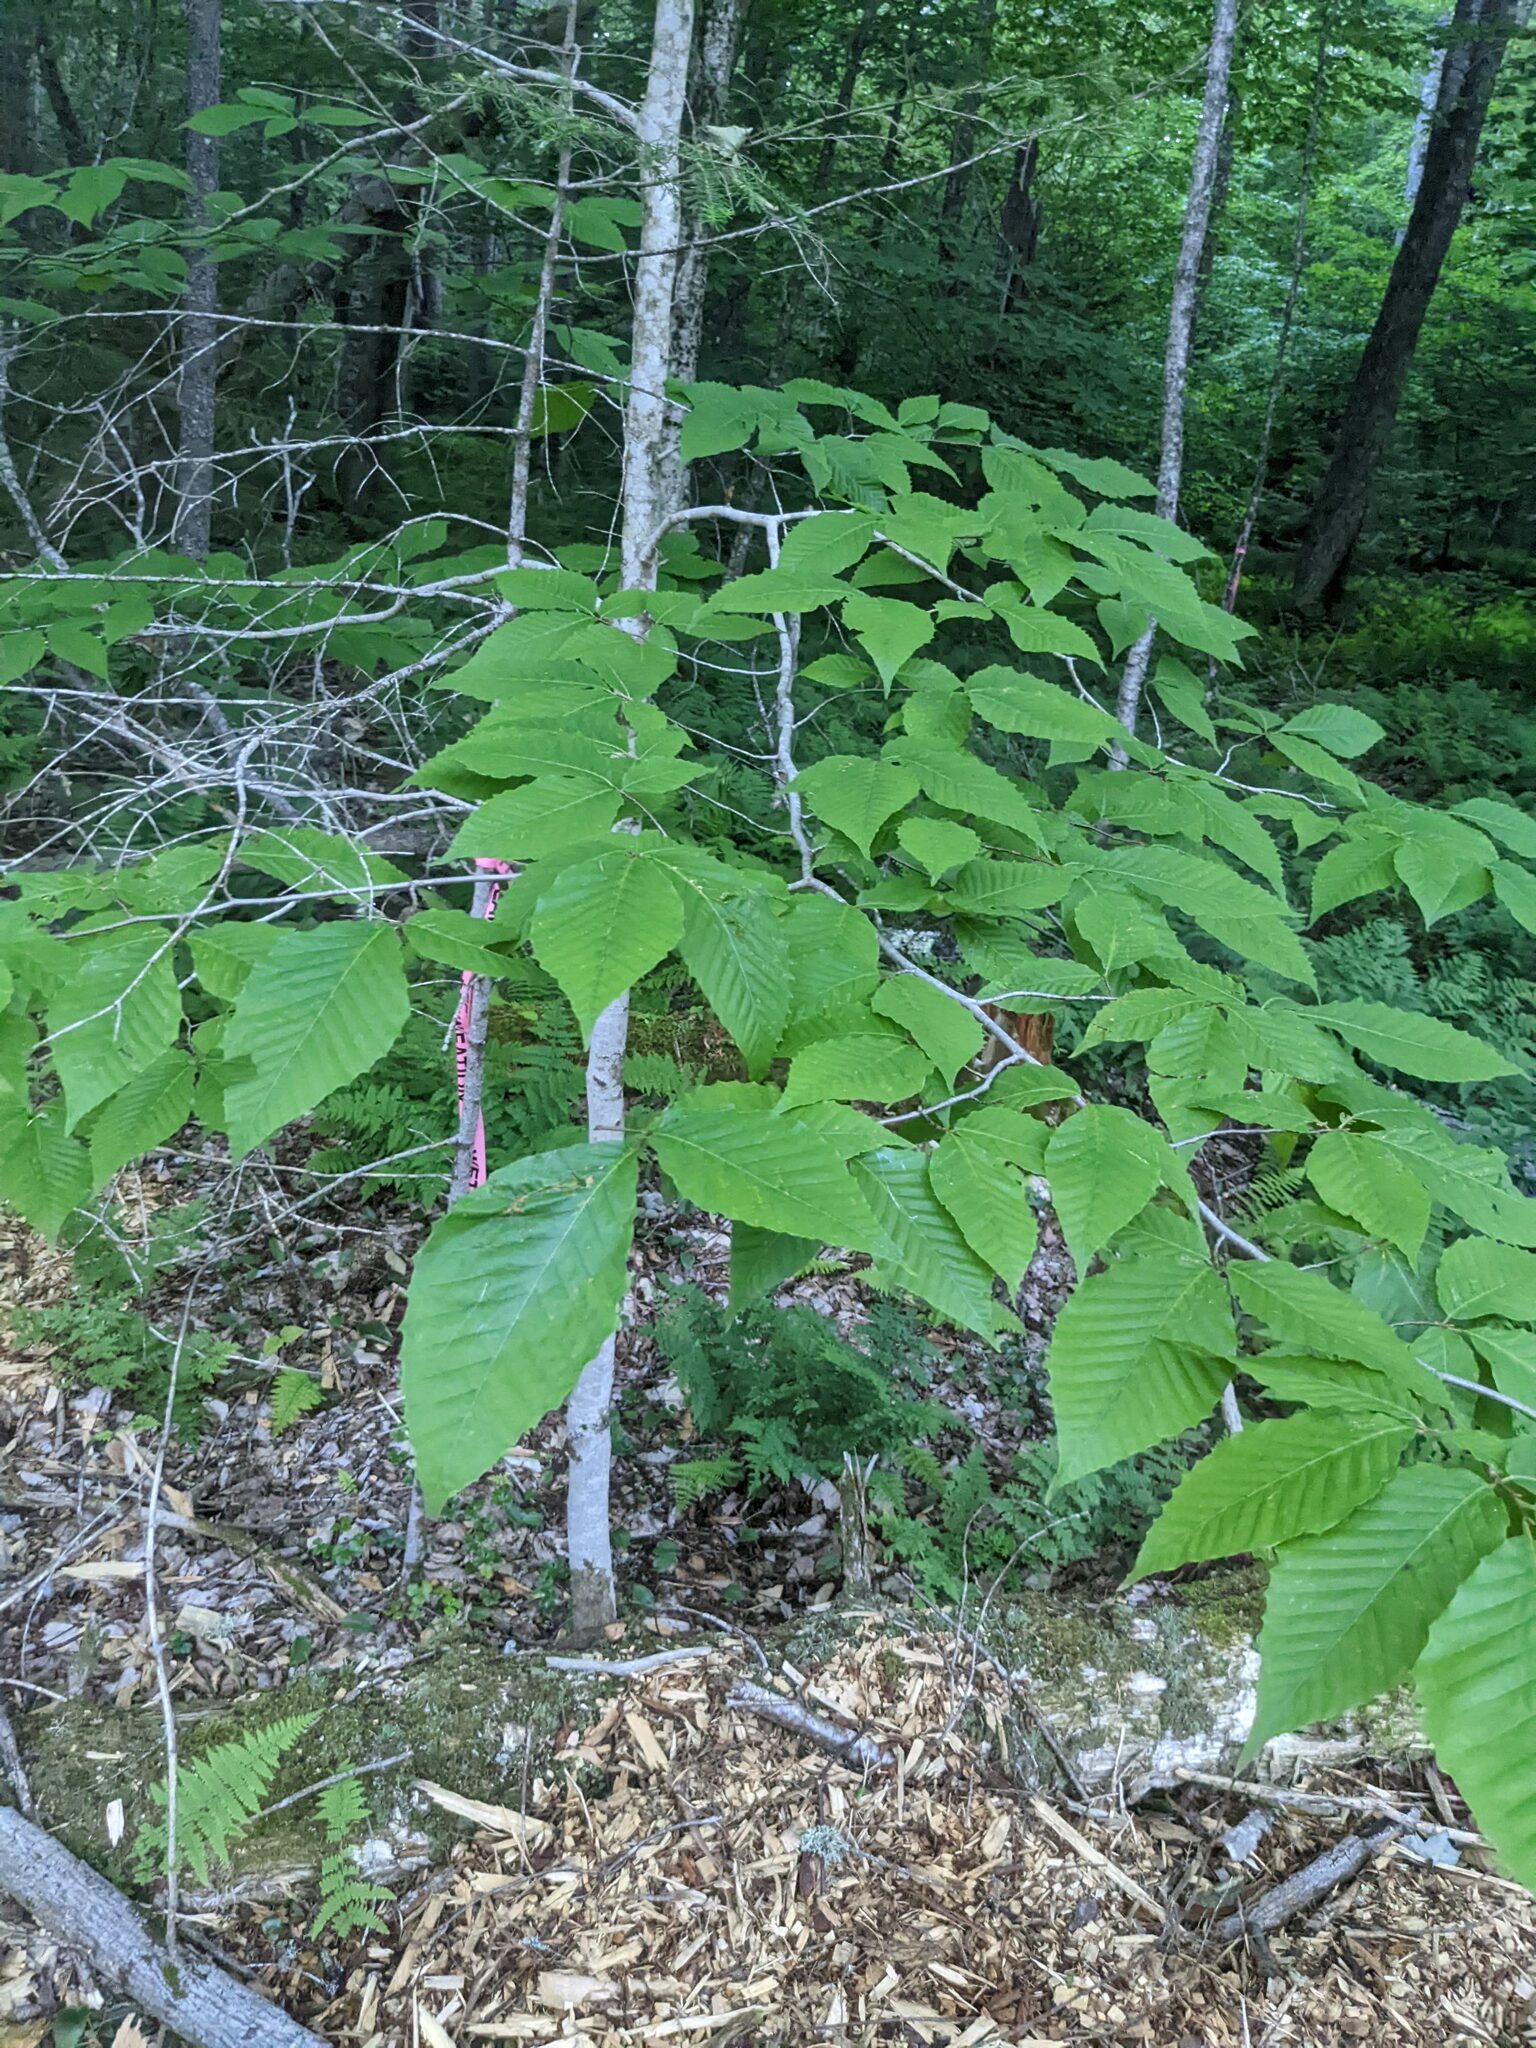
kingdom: Plantae
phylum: Tracheophyta
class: Magnoliopsida
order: Fagales
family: Fagaceae
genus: Fagus
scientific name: Fagus grandifolia
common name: American beech
